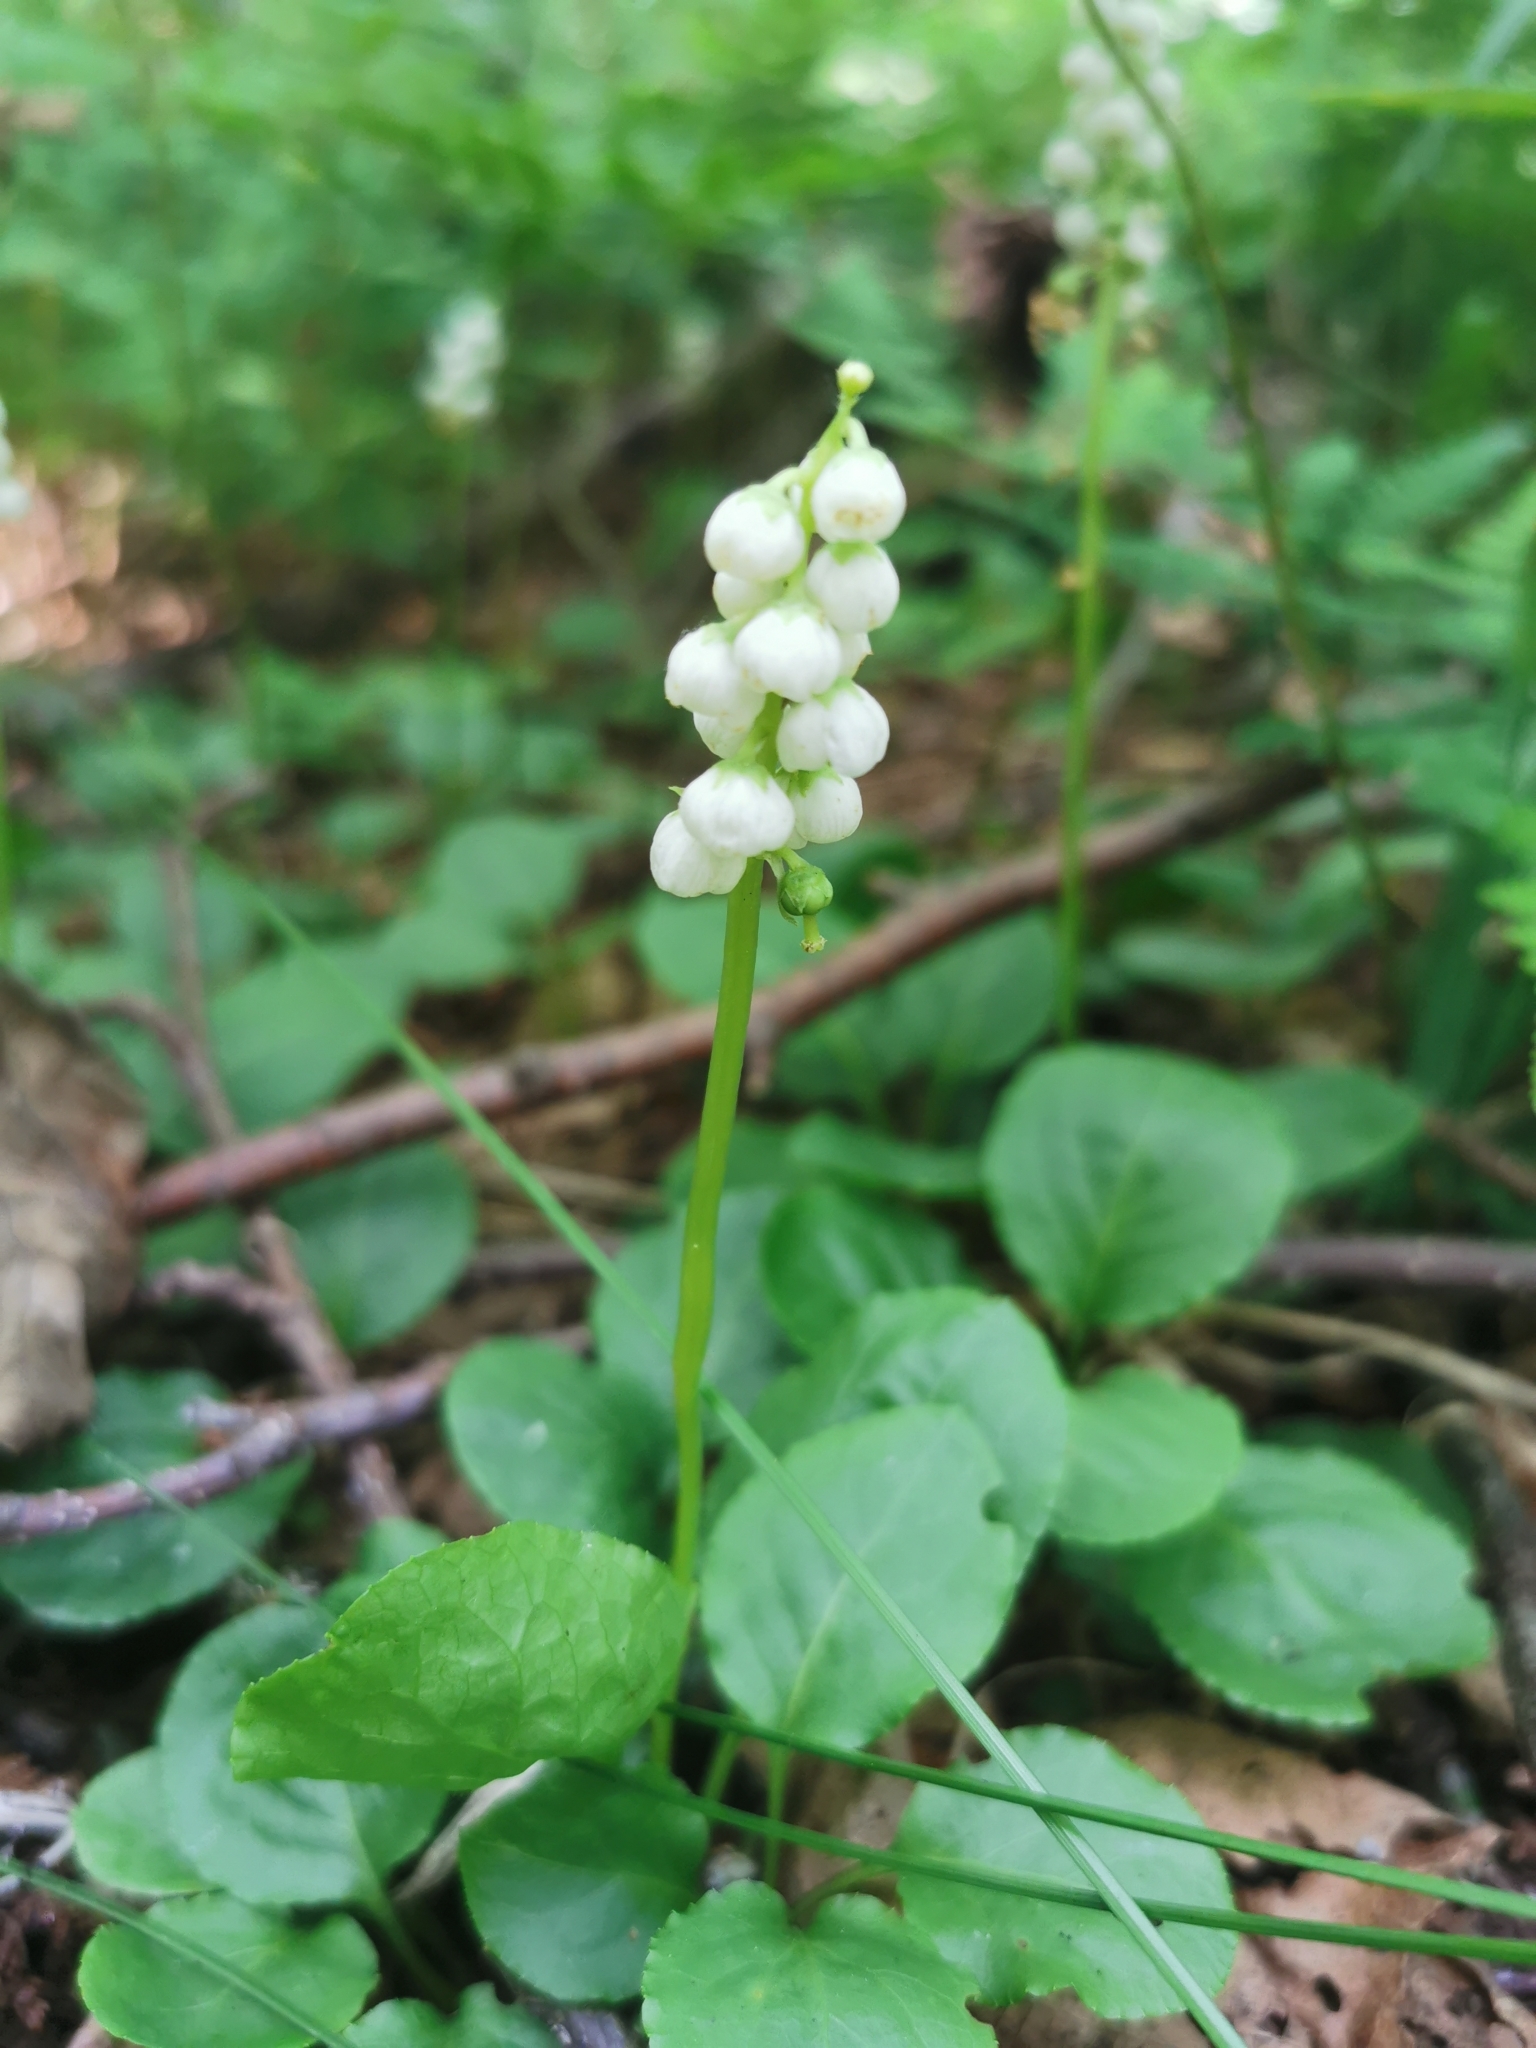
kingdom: Plantae
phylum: Tracheophyta
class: Magnoliopsida
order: Ericales
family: Ericaceae
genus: Pyrola
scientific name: Pyrola minor
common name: Common wintergreen
